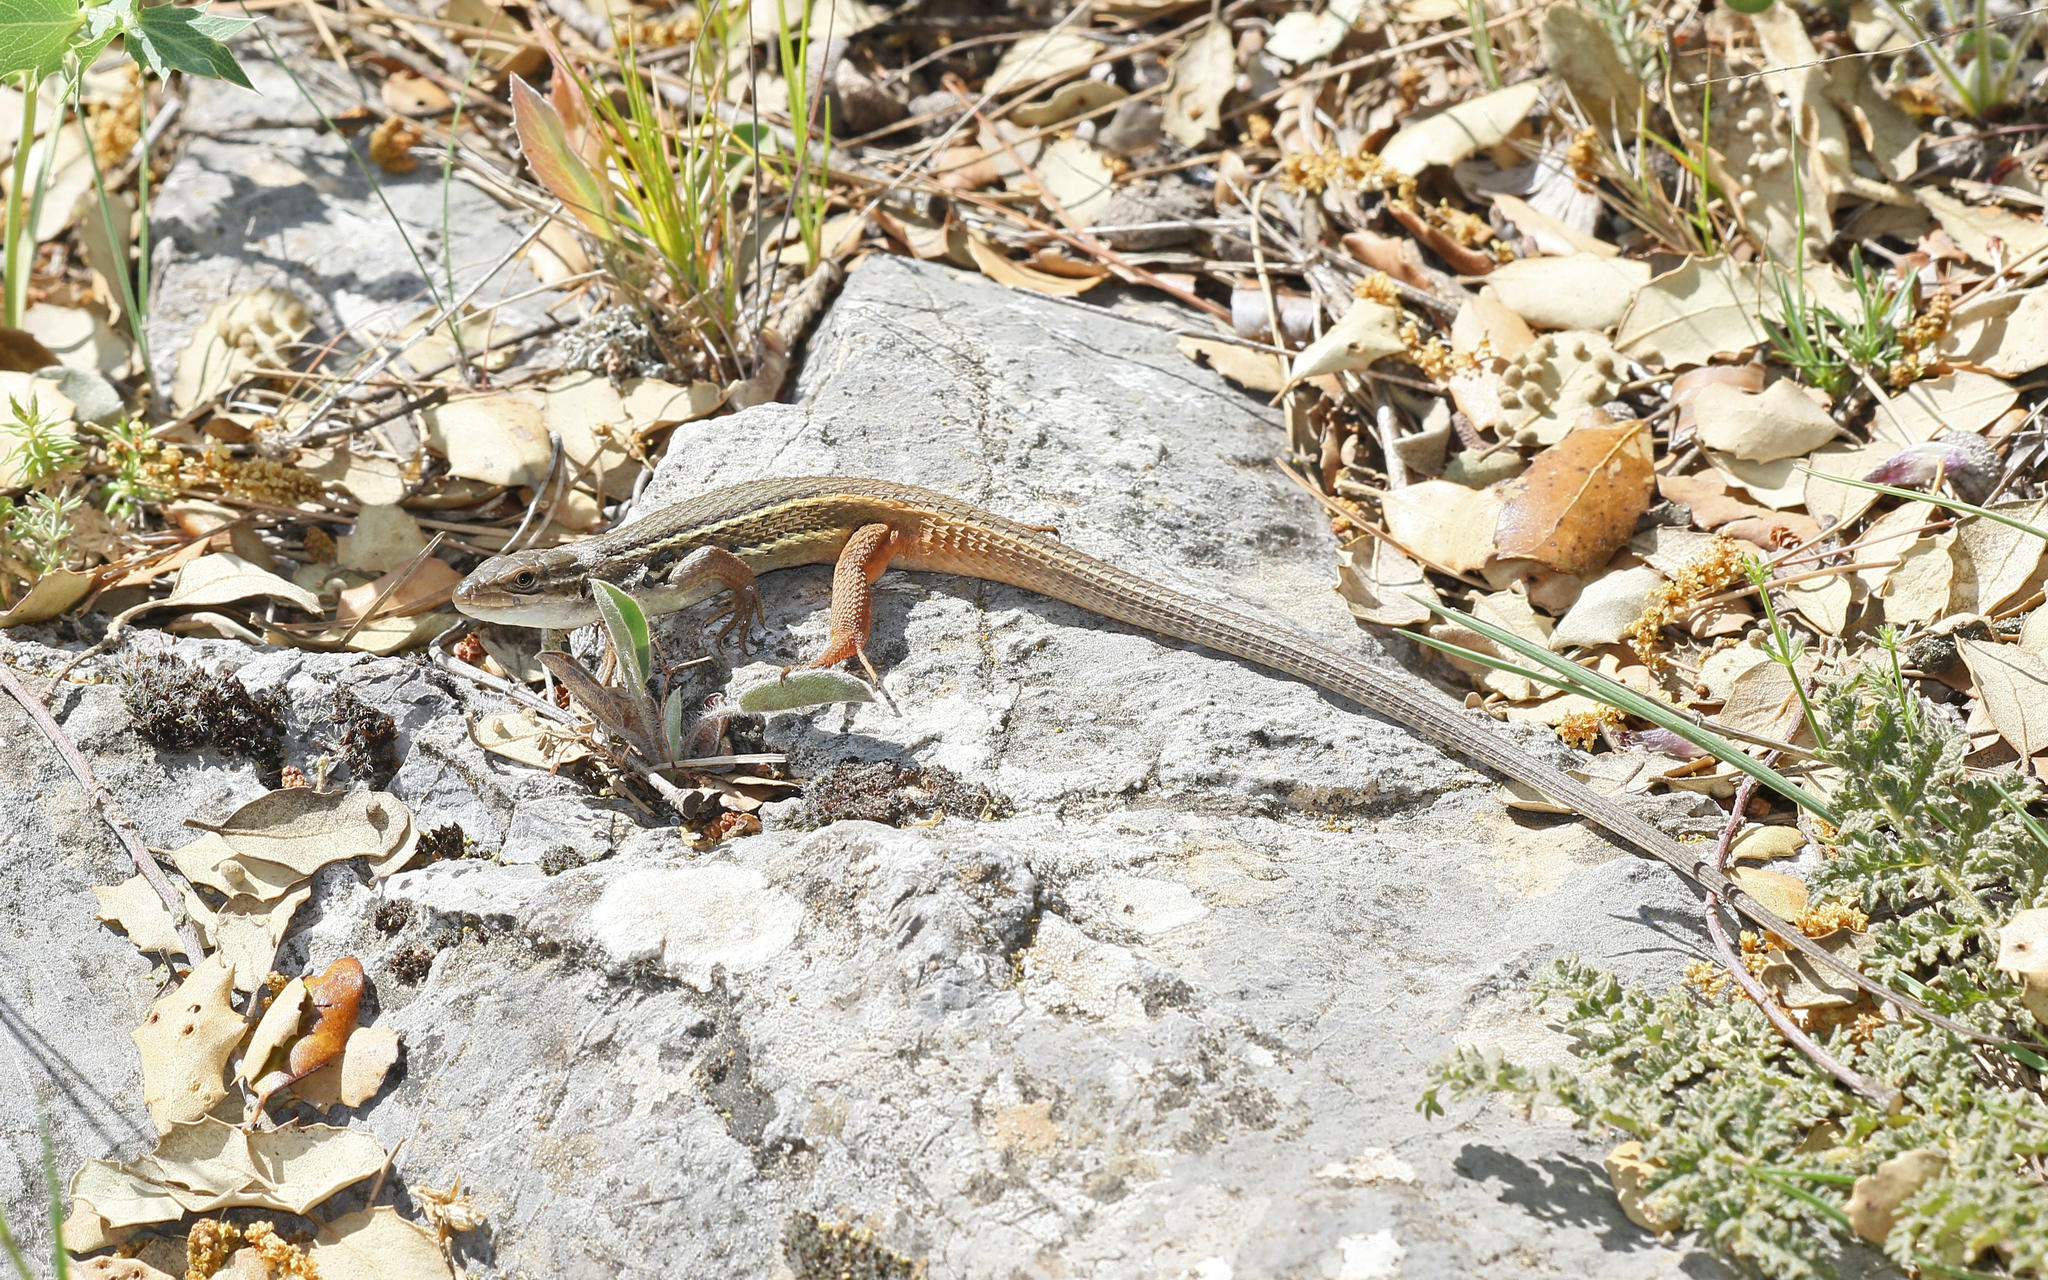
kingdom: Animalia
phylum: Chordata
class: Squamata
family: Lacertidae
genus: Psammodromus
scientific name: Psammodromus algirus
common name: Algerian psammodromus
